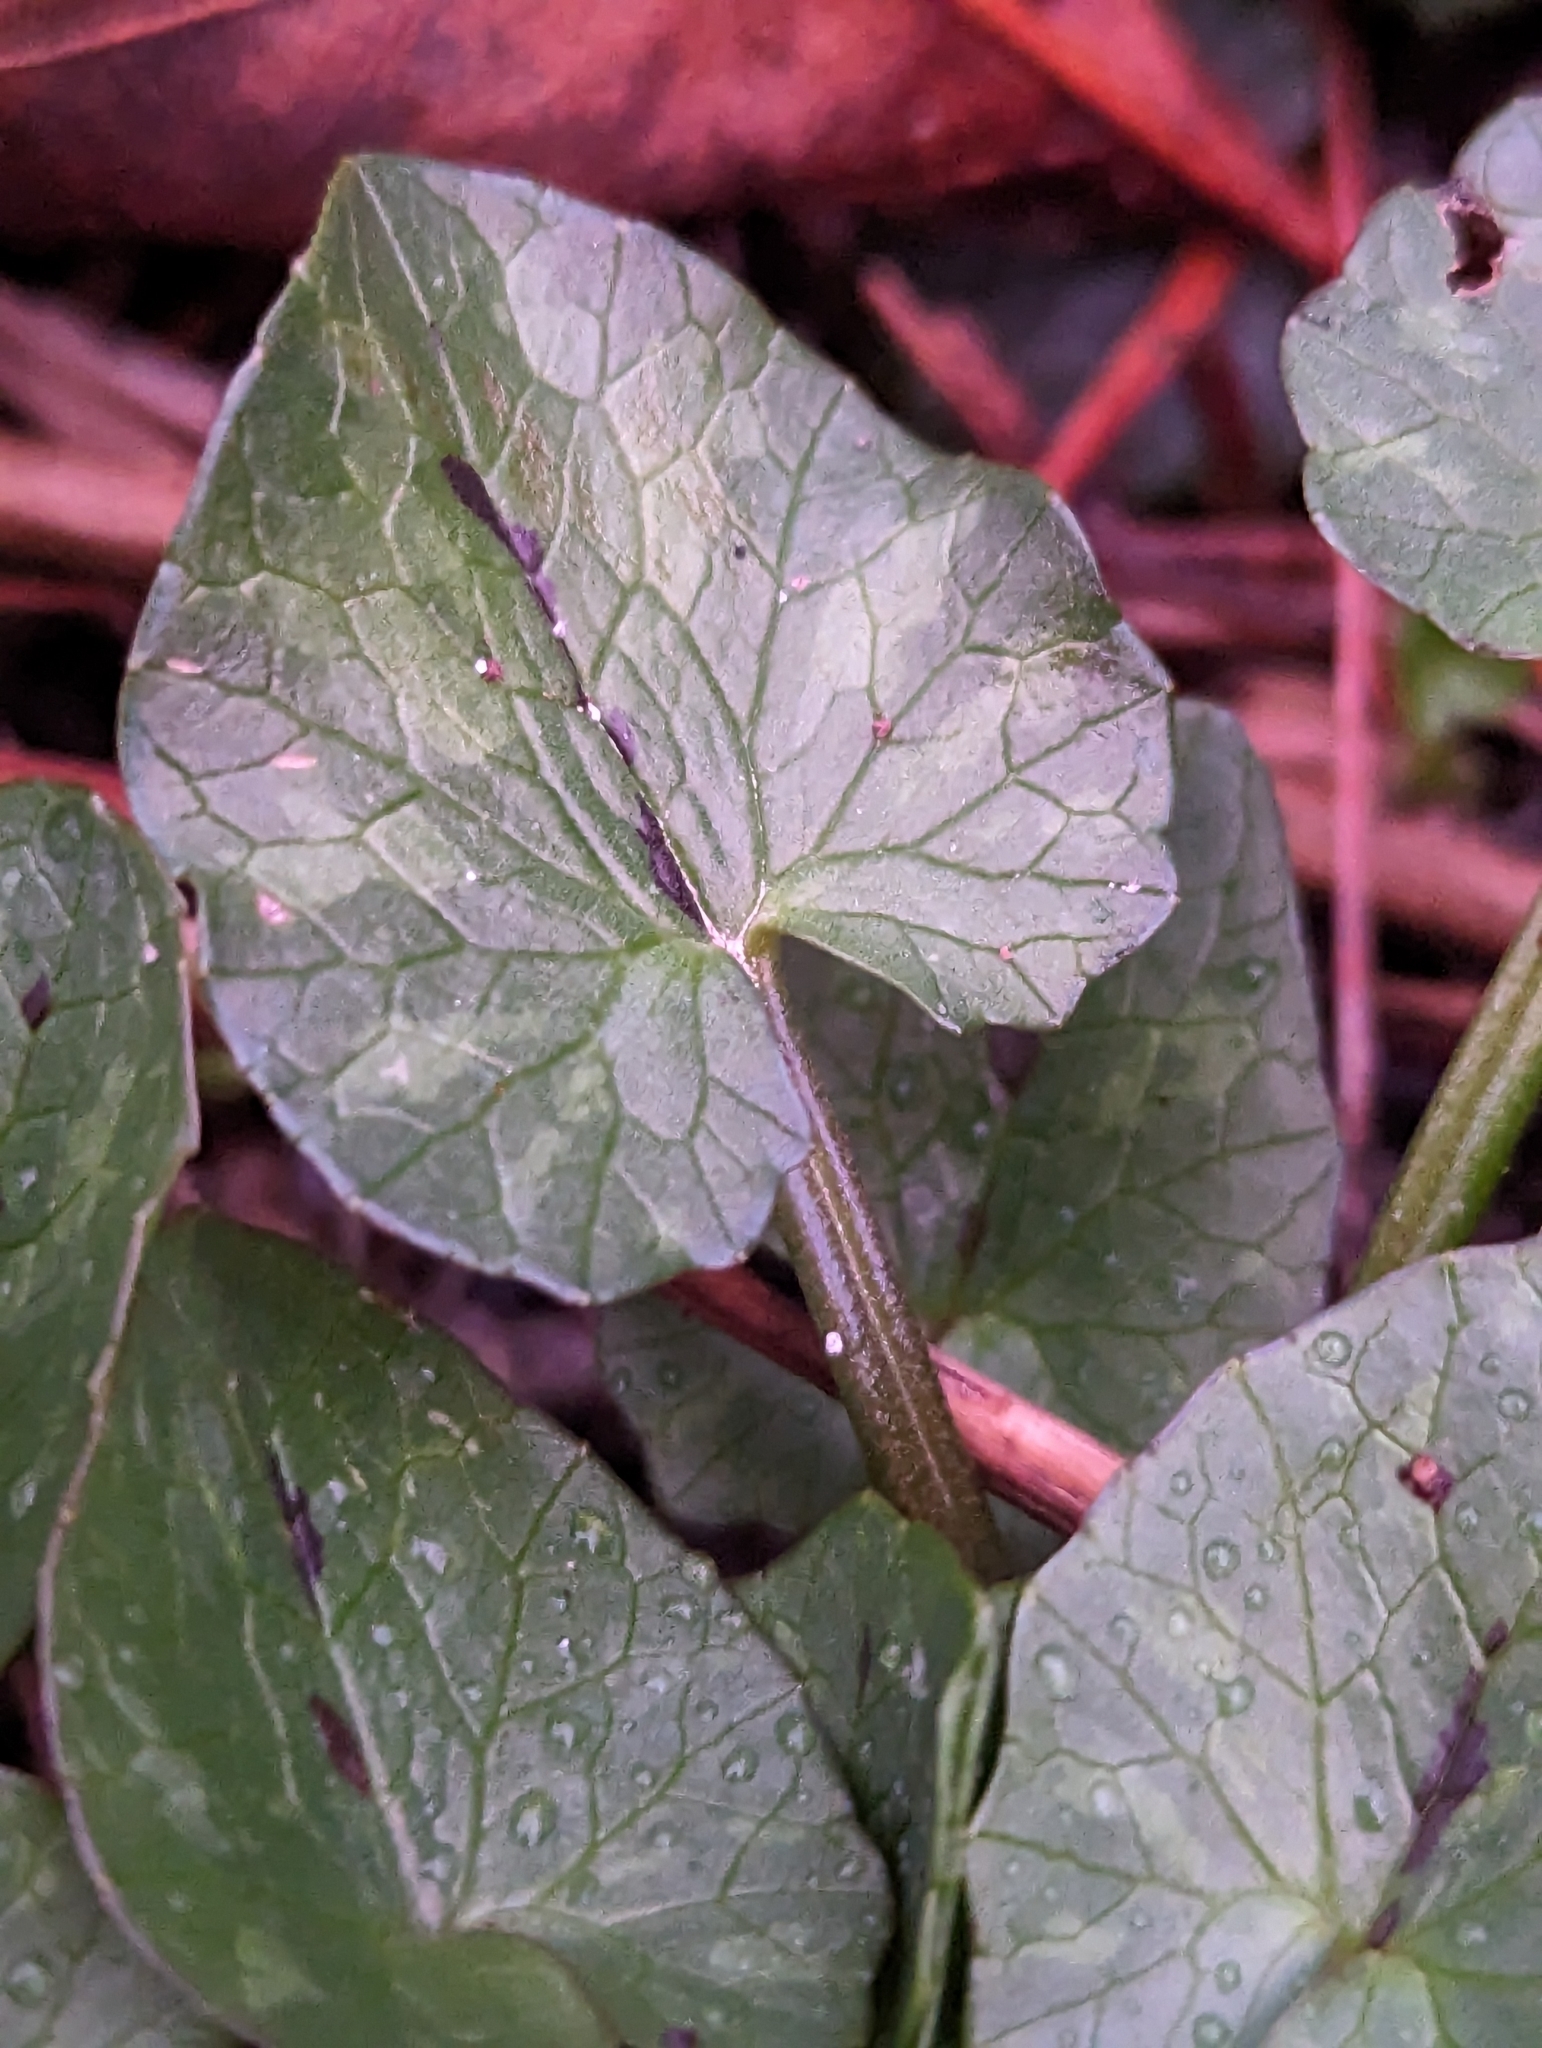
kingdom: Plantae
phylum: Tracheophyta
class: Magnoliopsida
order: Ranunculales
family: Ranunculaceae
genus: Ficaria
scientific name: Ficaria verna
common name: Lesser celandine
